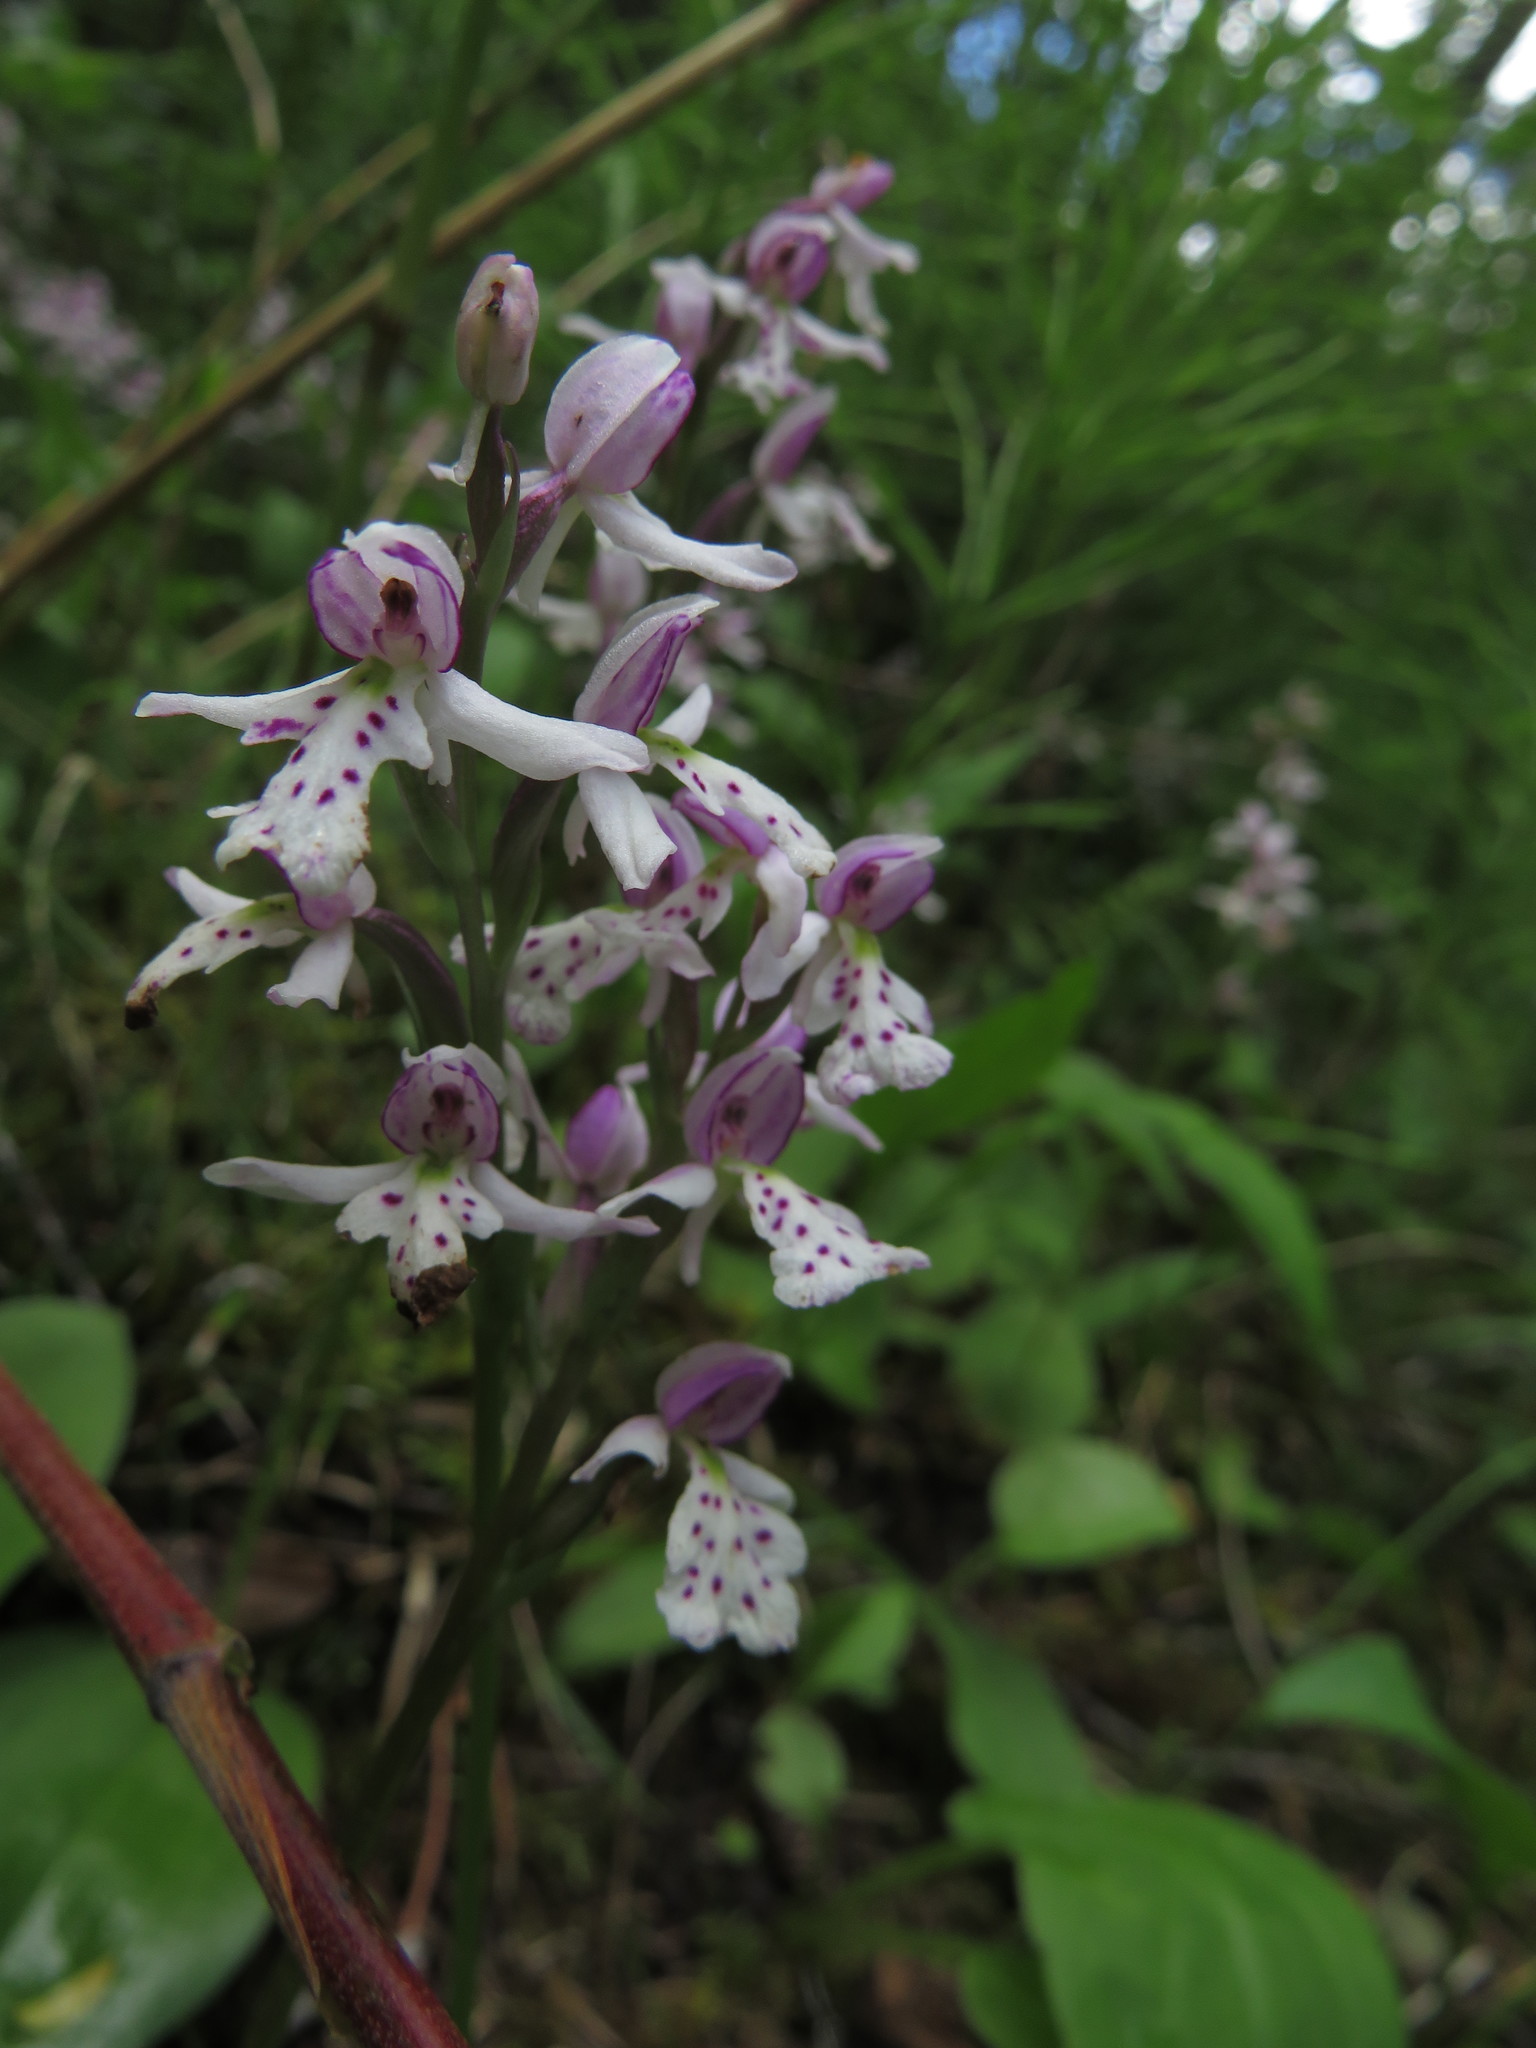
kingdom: Plantae
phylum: Tracheophyta
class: Liliopsida
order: Asparagales
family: Orchidaceae
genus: Galearis
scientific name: Galearis rotundifolia
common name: One-leaved orchis
